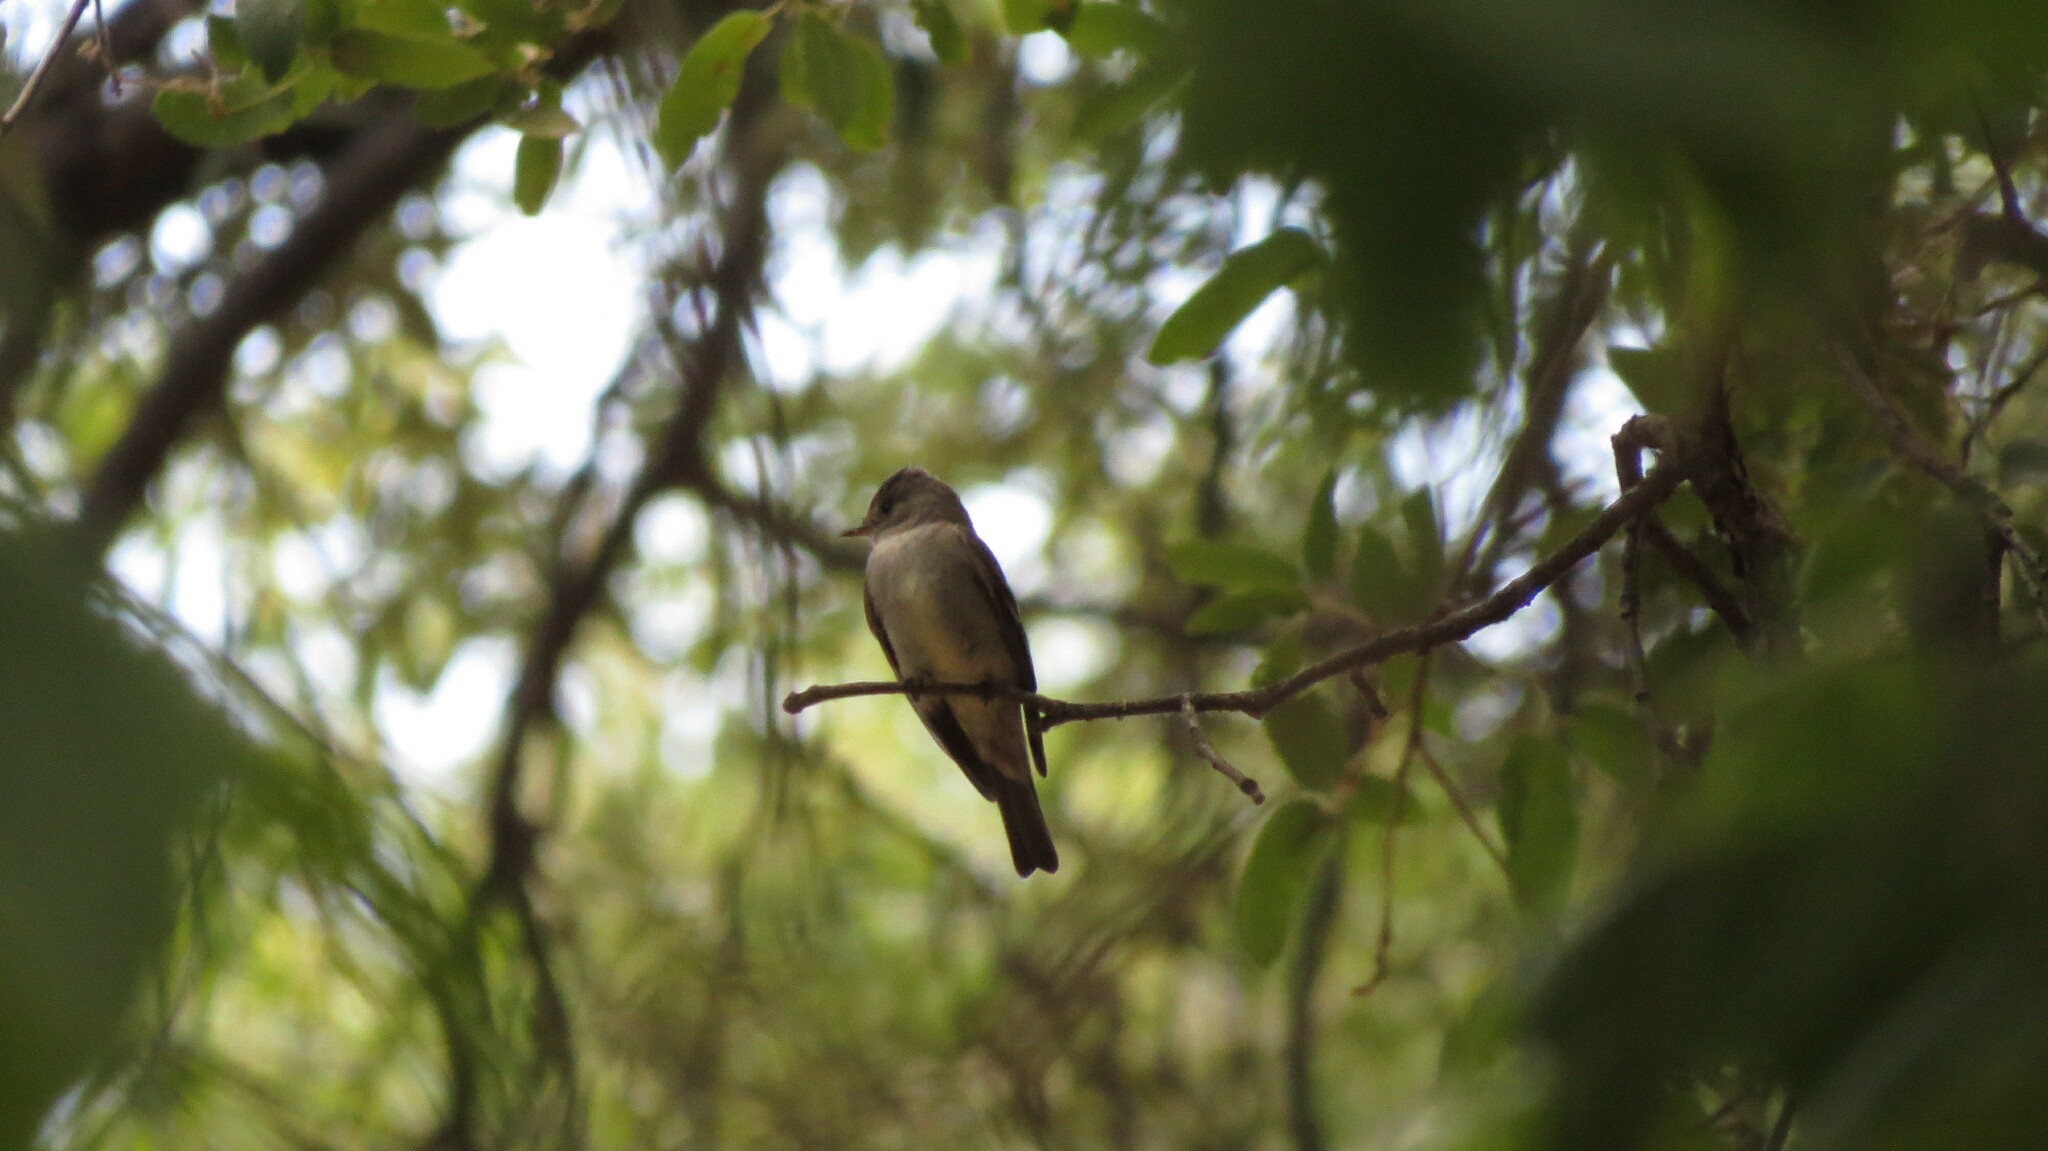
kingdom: Animalia
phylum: Chordata
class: Aves
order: Passeriformes
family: Tyrannidae
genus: Contopus
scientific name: Contopus sordidulus
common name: Western wood-pewee
